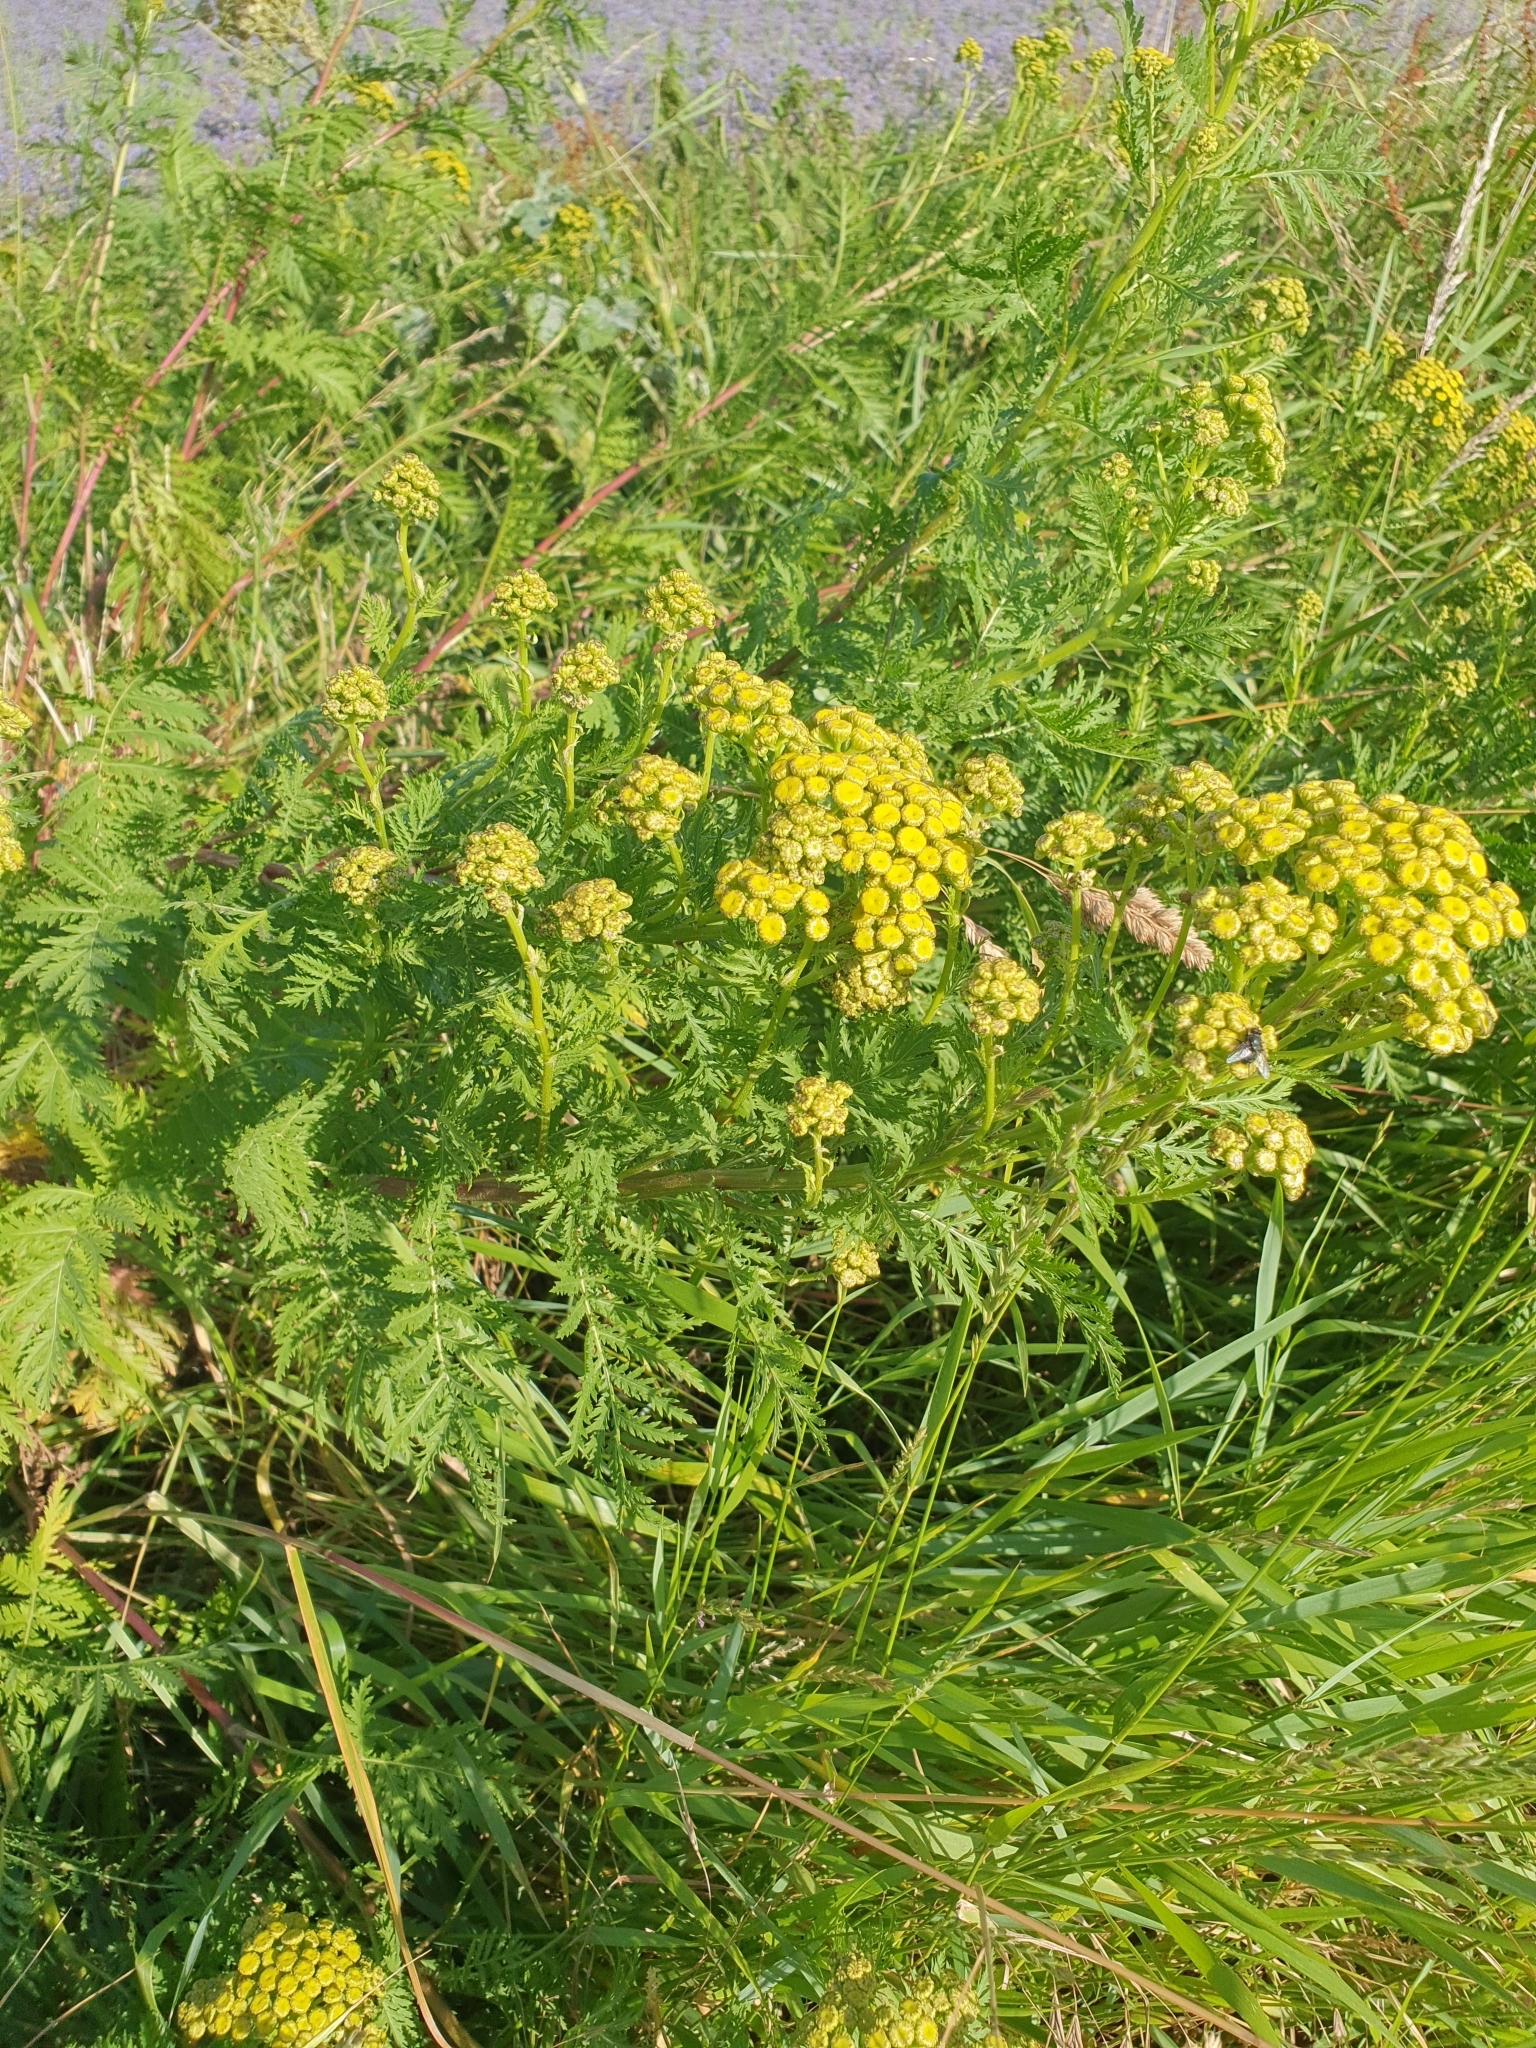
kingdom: Plantae
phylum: Tracheophyta
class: Magnoliopsida
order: Asterales
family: Asteraceae
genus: Tanacetum
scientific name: Tanacetum vulgare
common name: Common tansy
